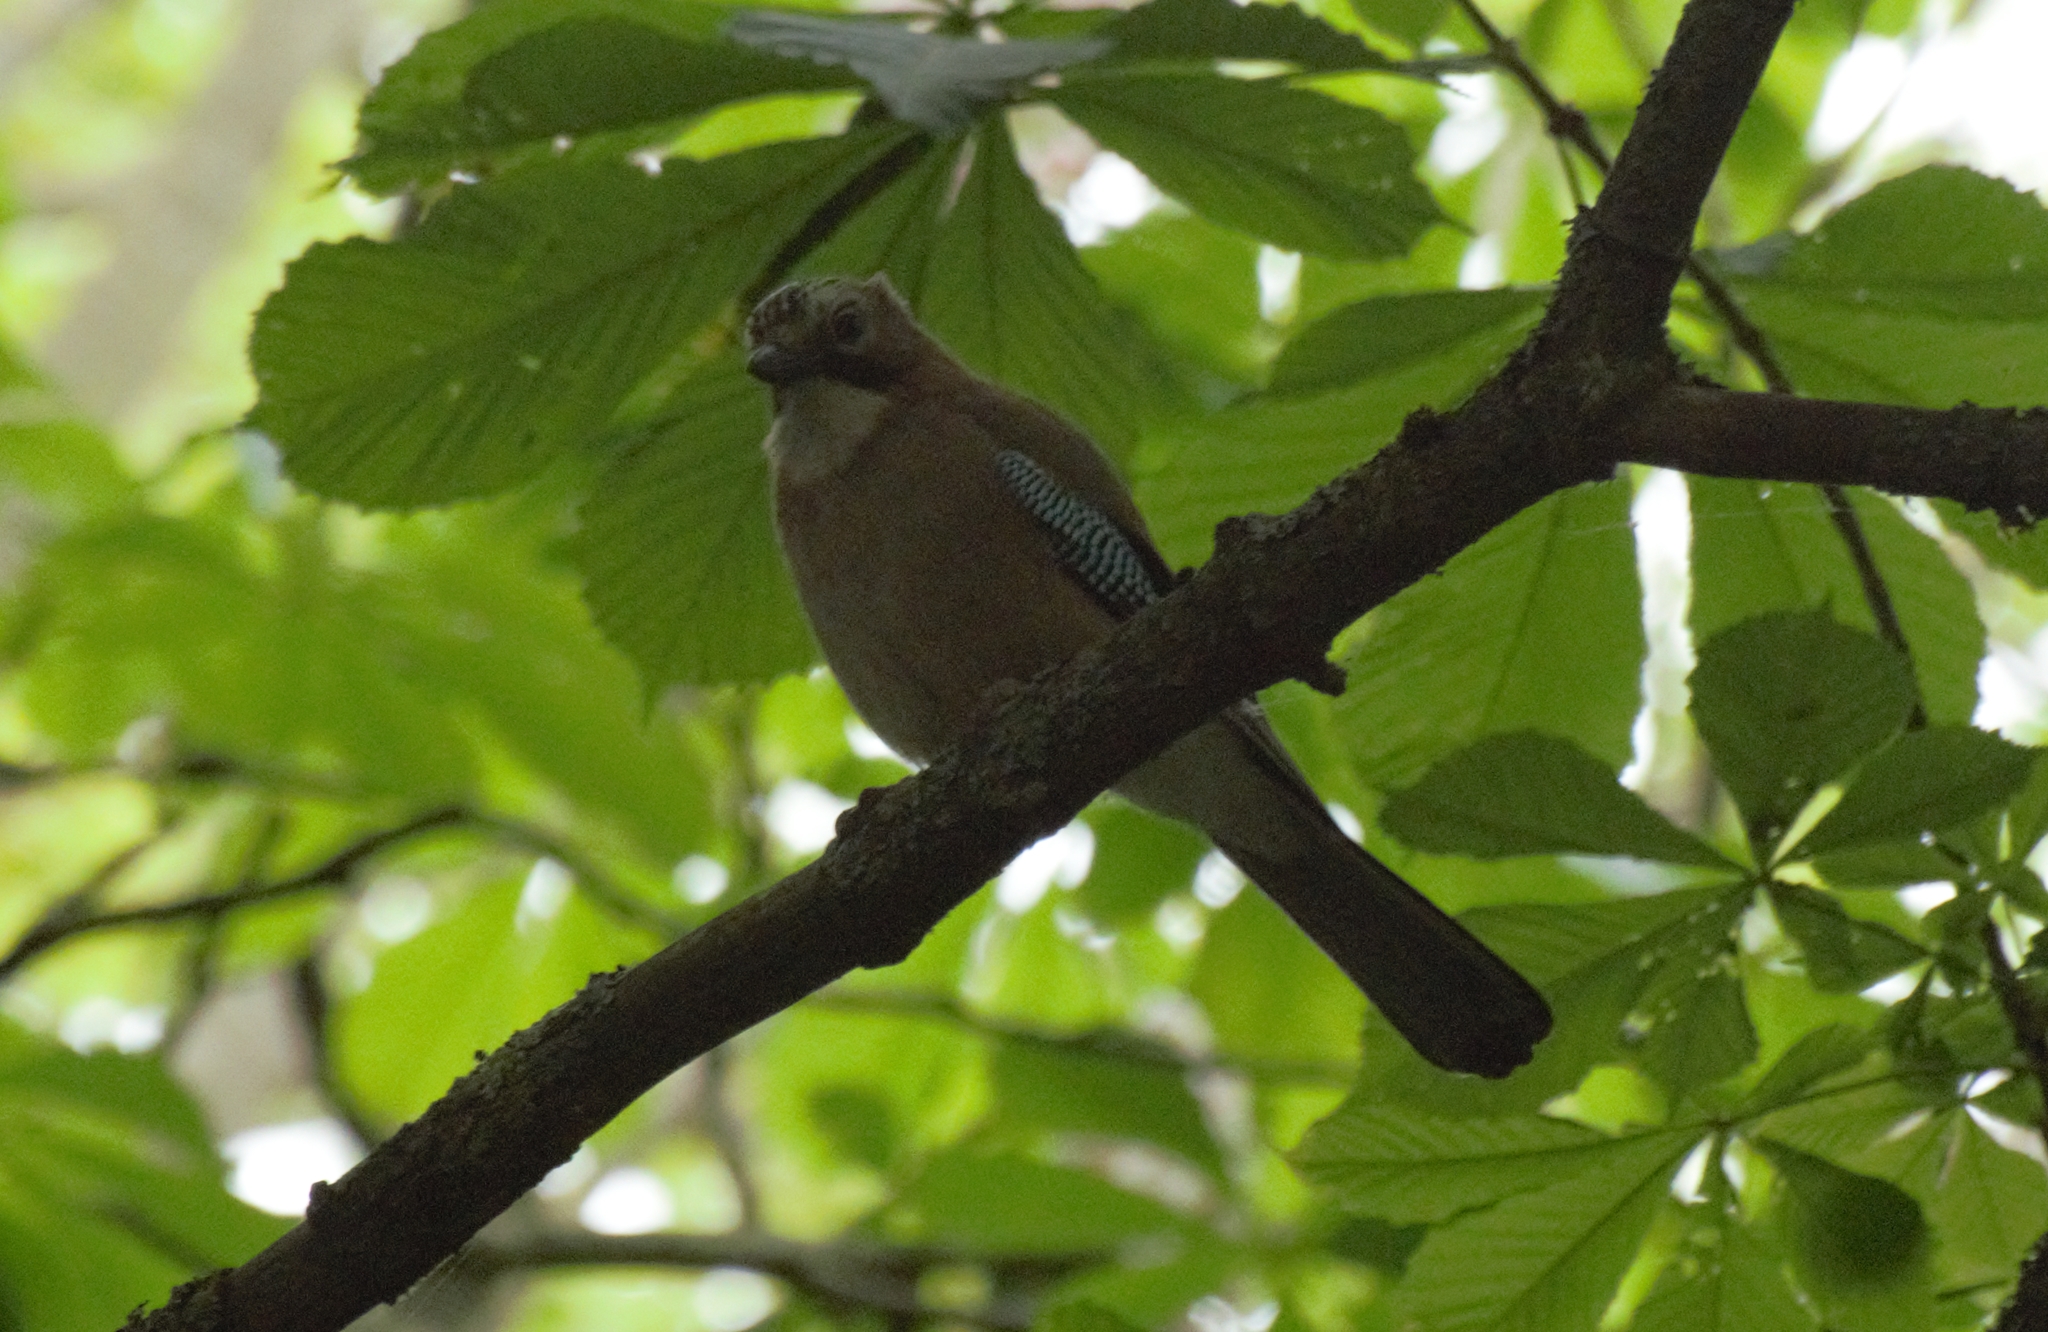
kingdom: Animalia
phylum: Chordata
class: Aves
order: Passeriformes
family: Corvidae
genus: Garrulus
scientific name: Garrulus glandarius
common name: Eurasian jay
